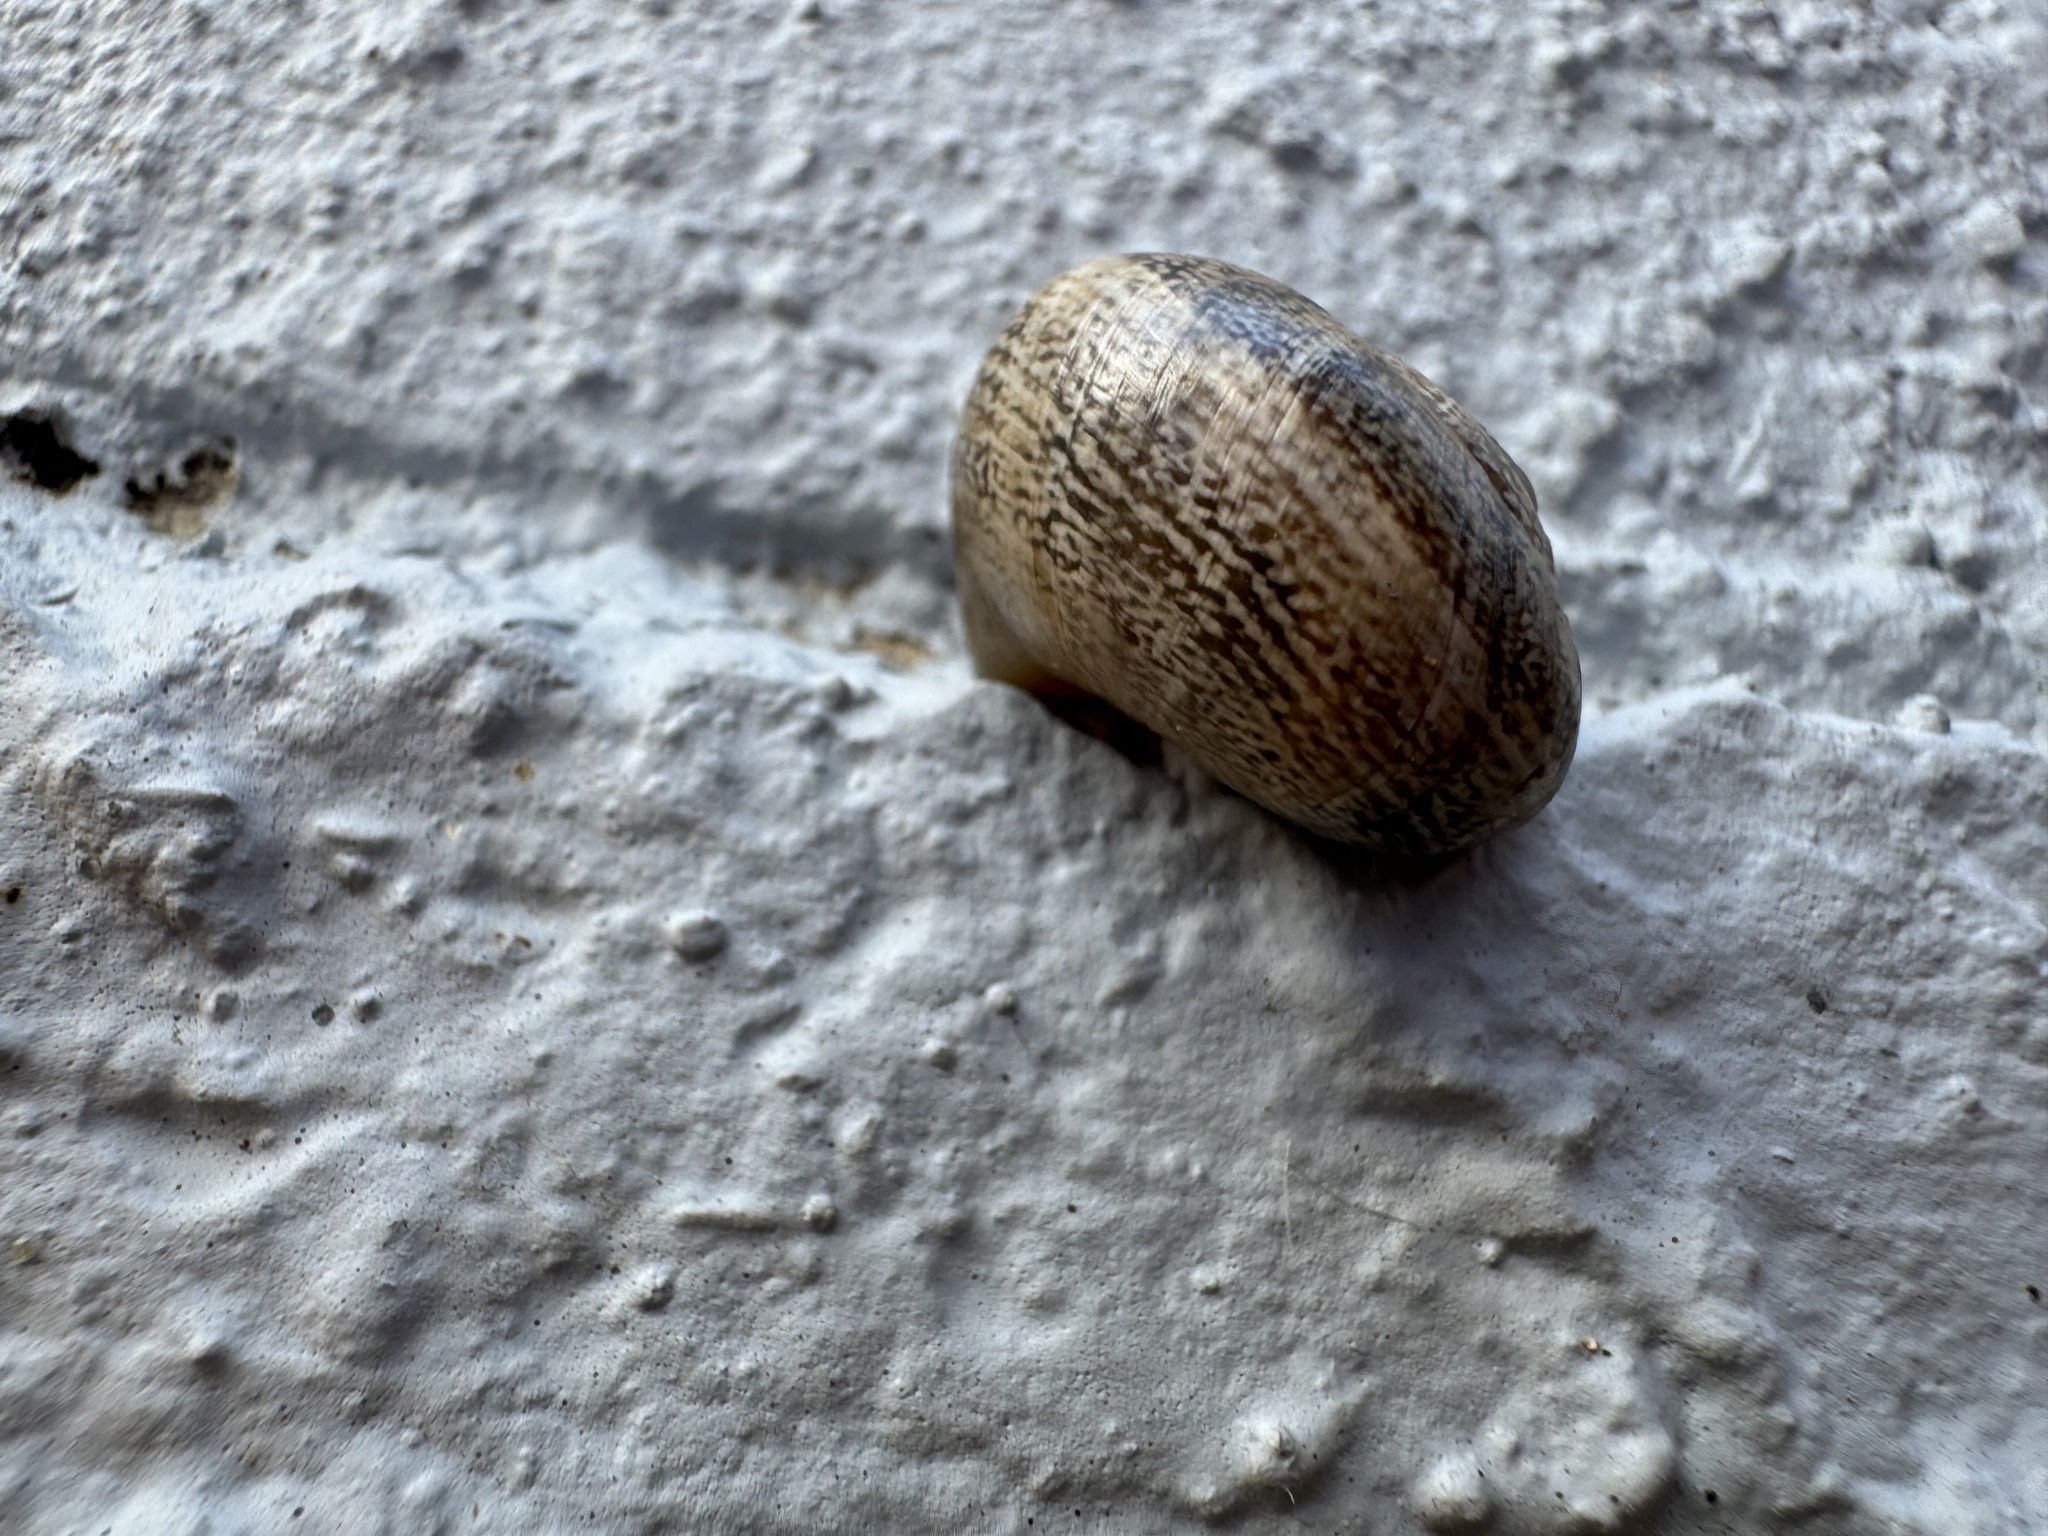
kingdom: Animalia
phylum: Mollusca
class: Gastropoda
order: Stylommatophora
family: Xanthonychidae
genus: Xerarionta
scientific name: Xerarionta stearnsiana
